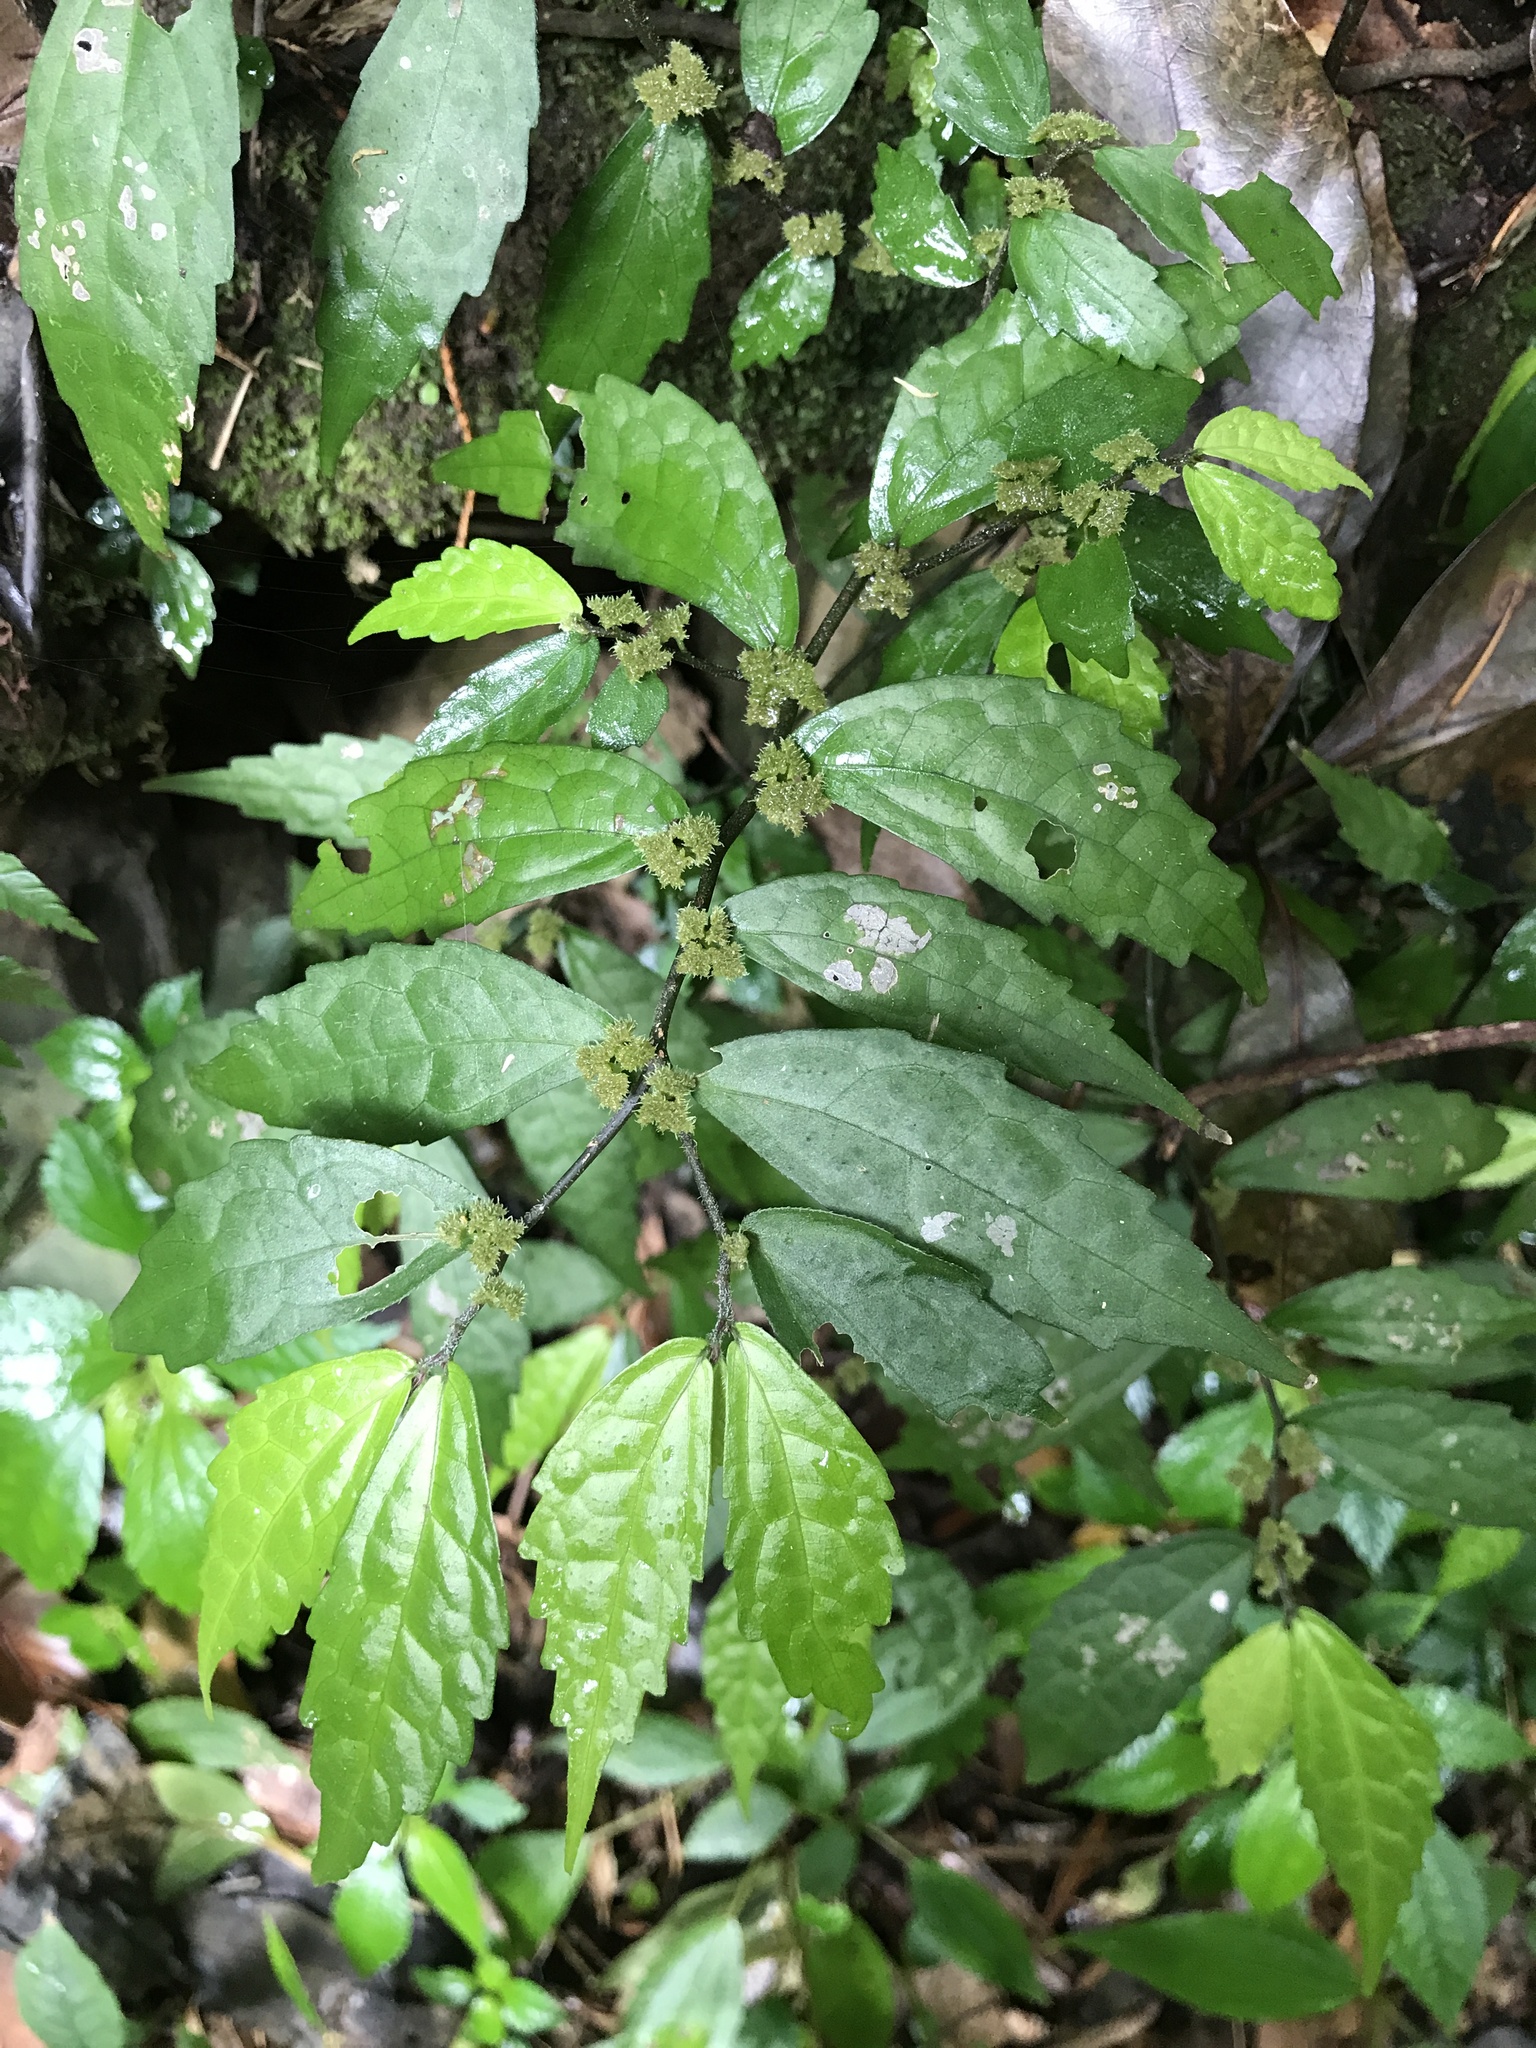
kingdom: Plantae
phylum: Tracheophyta
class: Magnoliopsida
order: Rosales
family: Urticaceae
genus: Elatostema
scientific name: Elatostema scabrum
